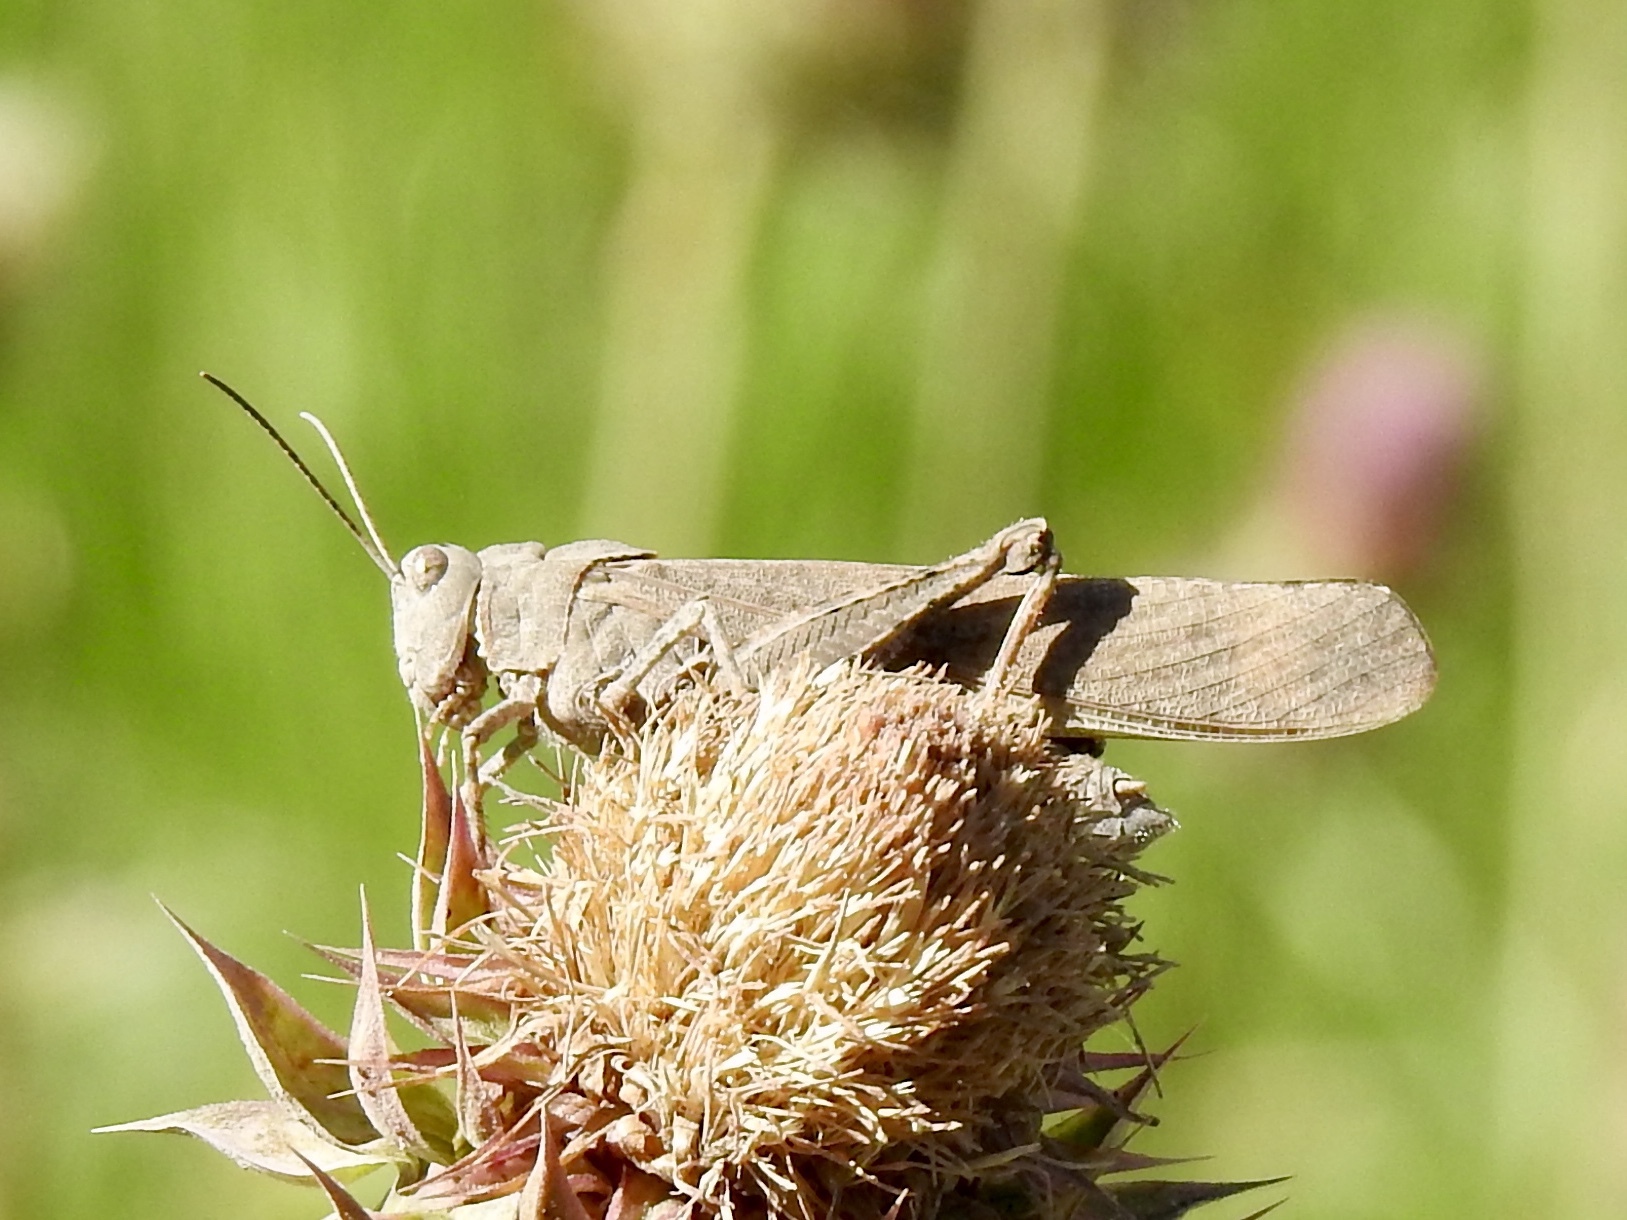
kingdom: Animalia
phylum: Arthropoda
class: Insecta
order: Orthoptera
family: Acrididae
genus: Dissosteira
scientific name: Dissosteira carolina
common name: Carolina grasshopper
